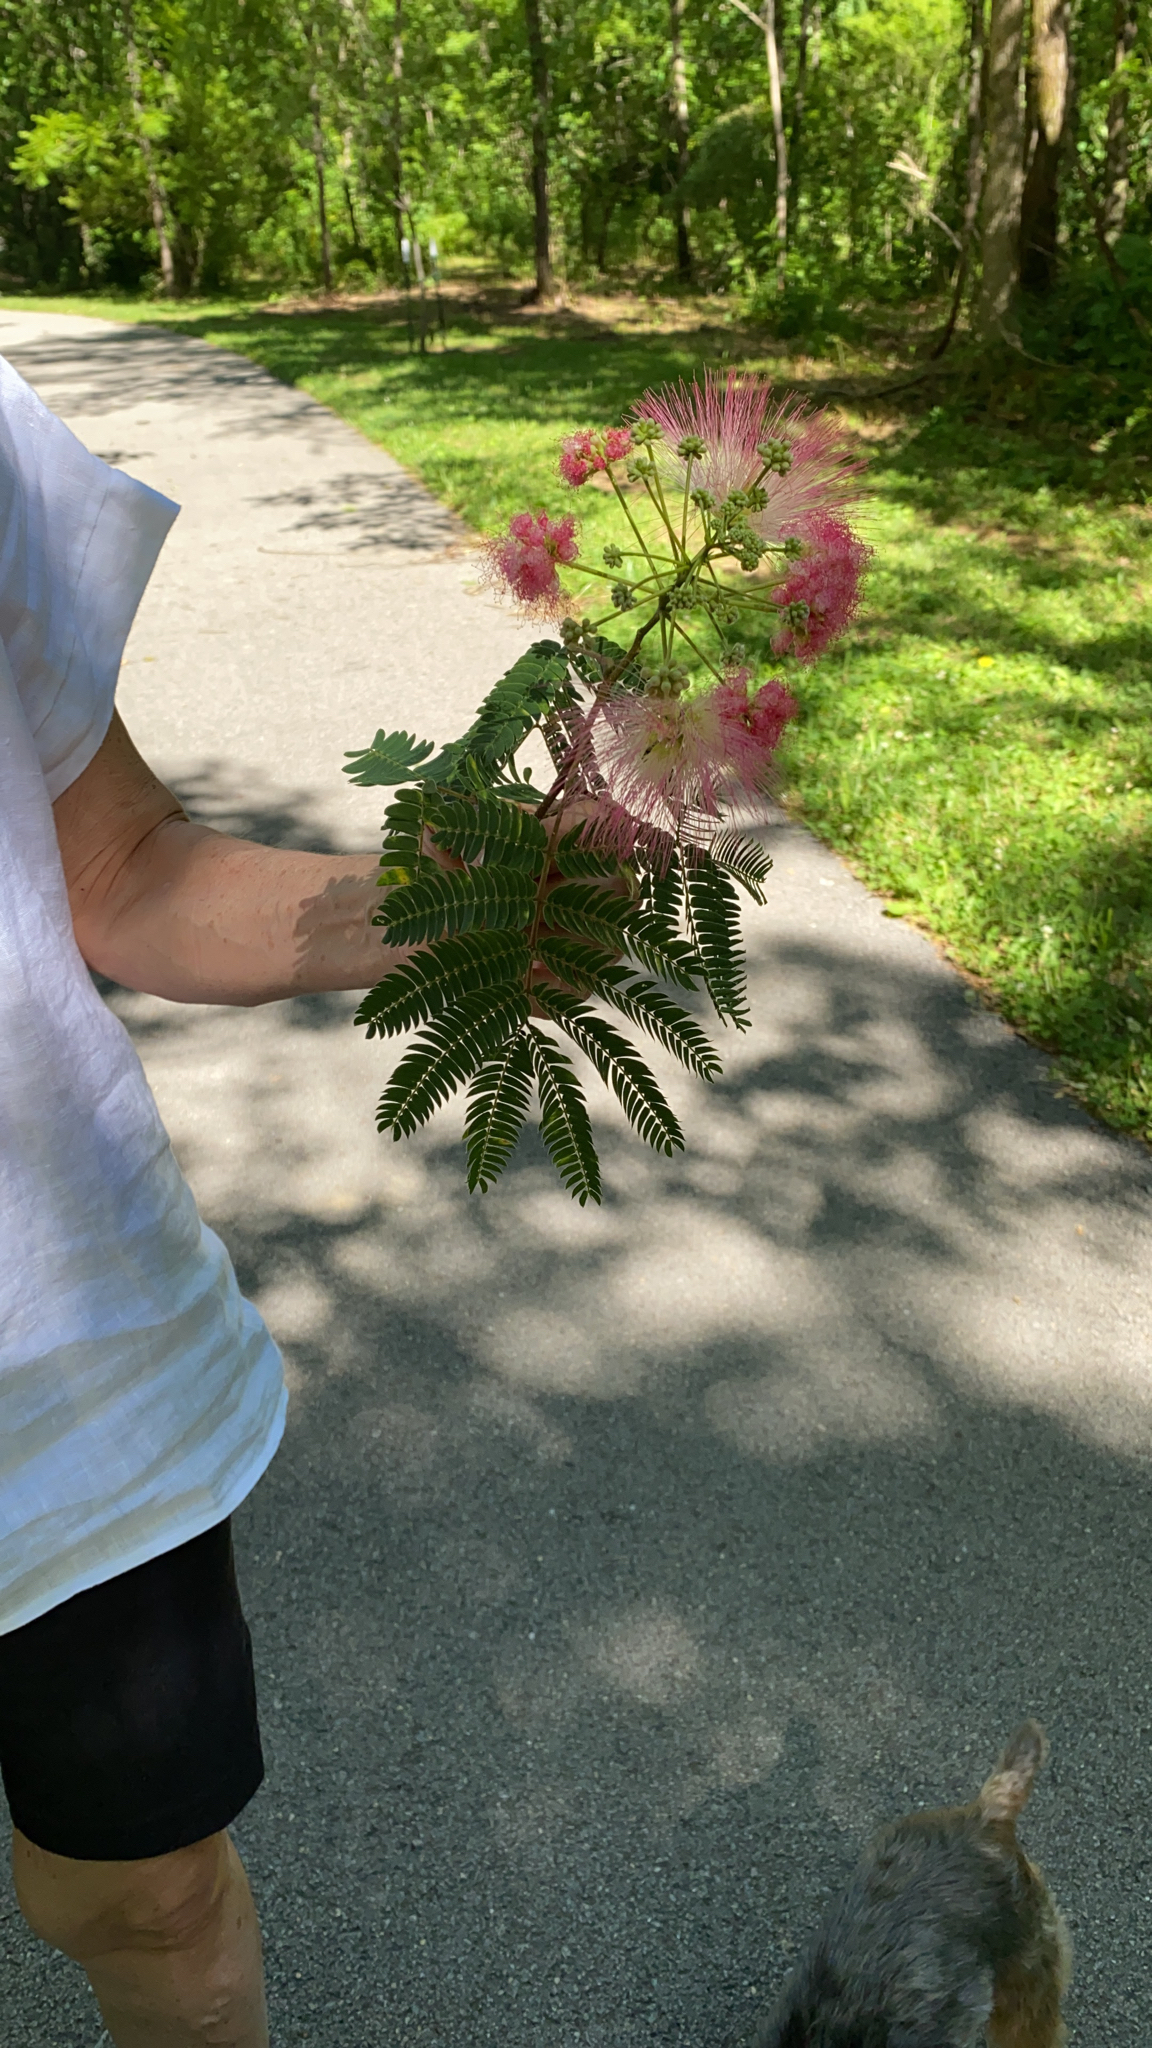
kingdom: Plantae
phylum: Tracheophyta
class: Magnoliopsida
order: Fabales
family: Fabaceae
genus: Albizia
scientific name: Albizia julibrissin
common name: Silktree
